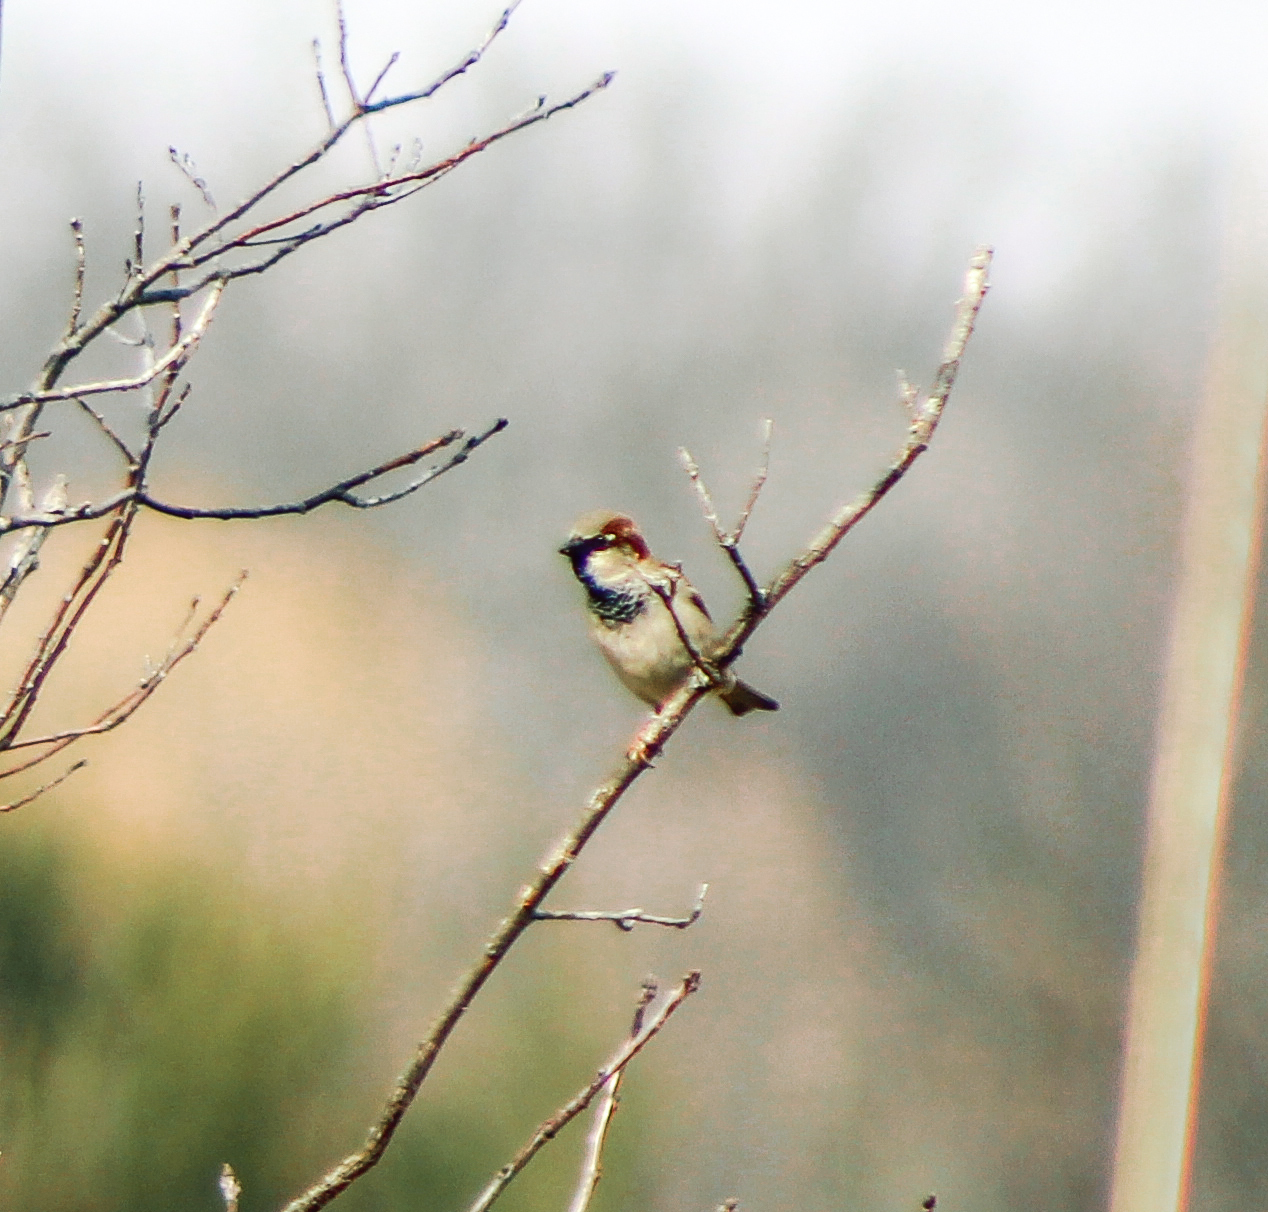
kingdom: Animalia
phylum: Chordata
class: Aves
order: Passeriformes
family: Passeridae
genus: Passer
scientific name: Passer domesticus
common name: House sparrow
